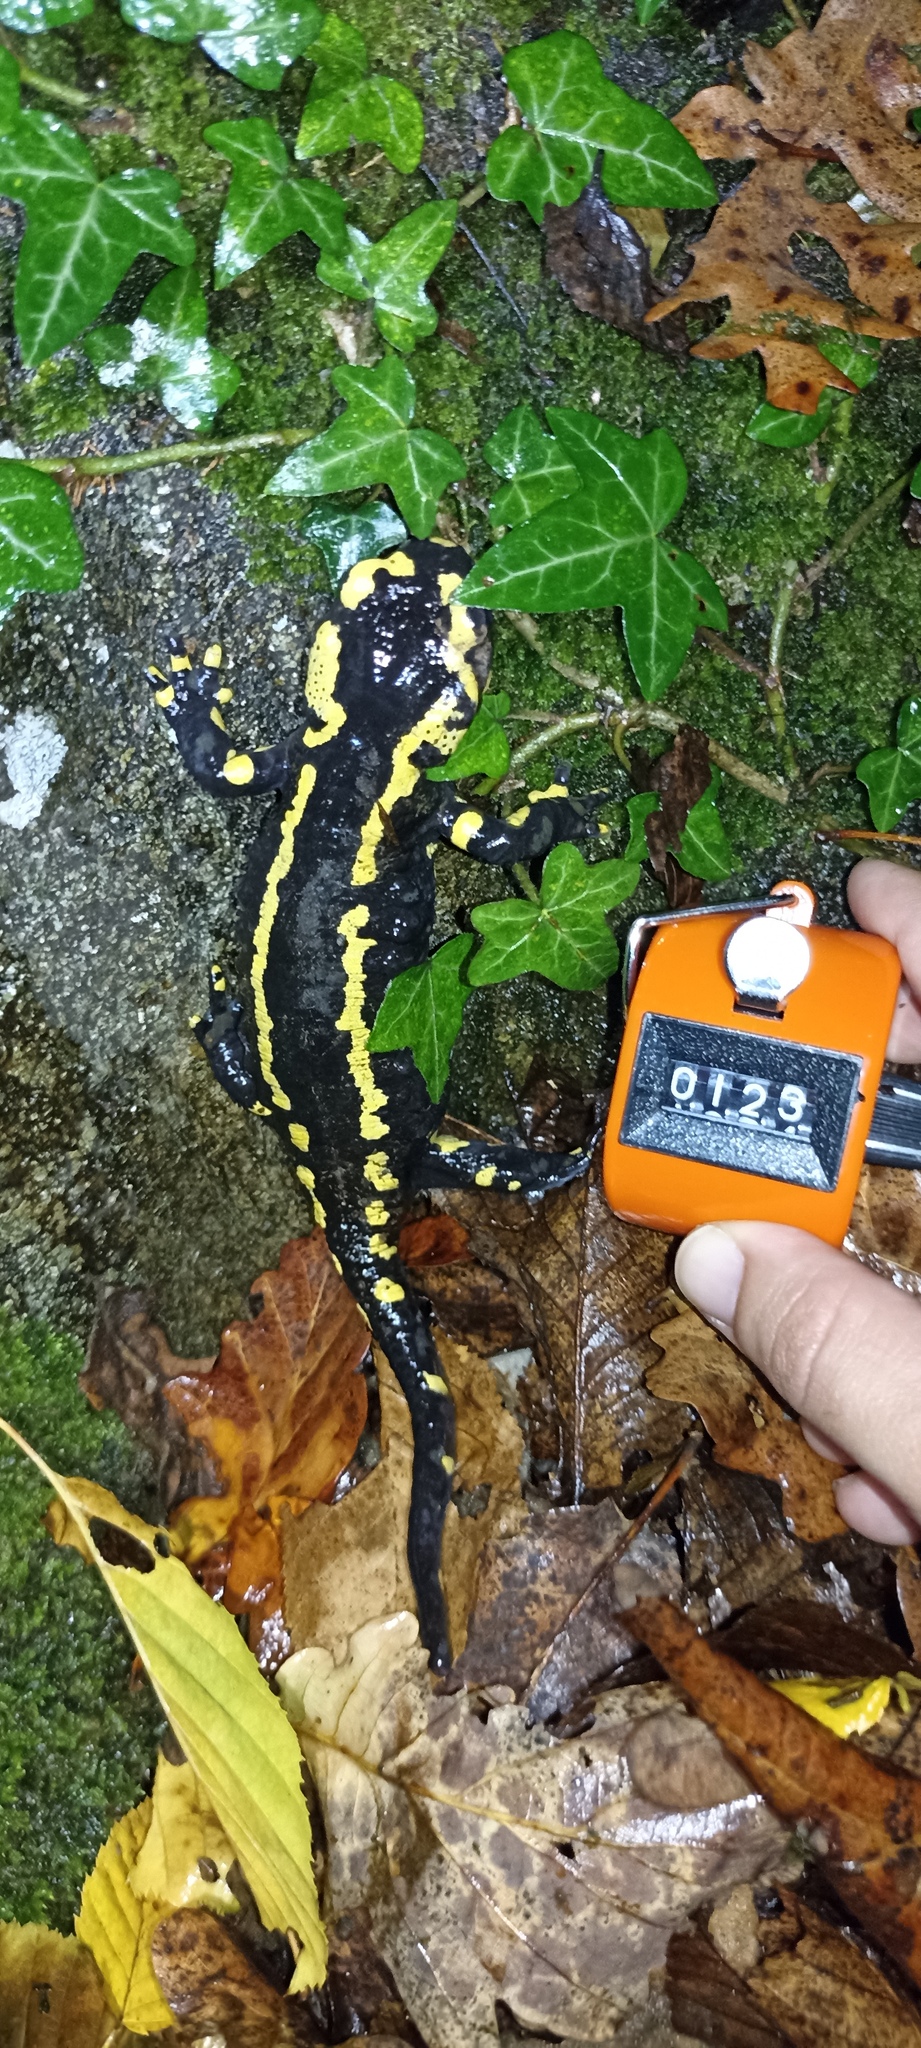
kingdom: Animalia
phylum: Chordata
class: Amphibia
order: Caudata
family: Salamandridae
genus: Salamandra
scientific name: Salamandra salamandra
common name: Fire salamander
